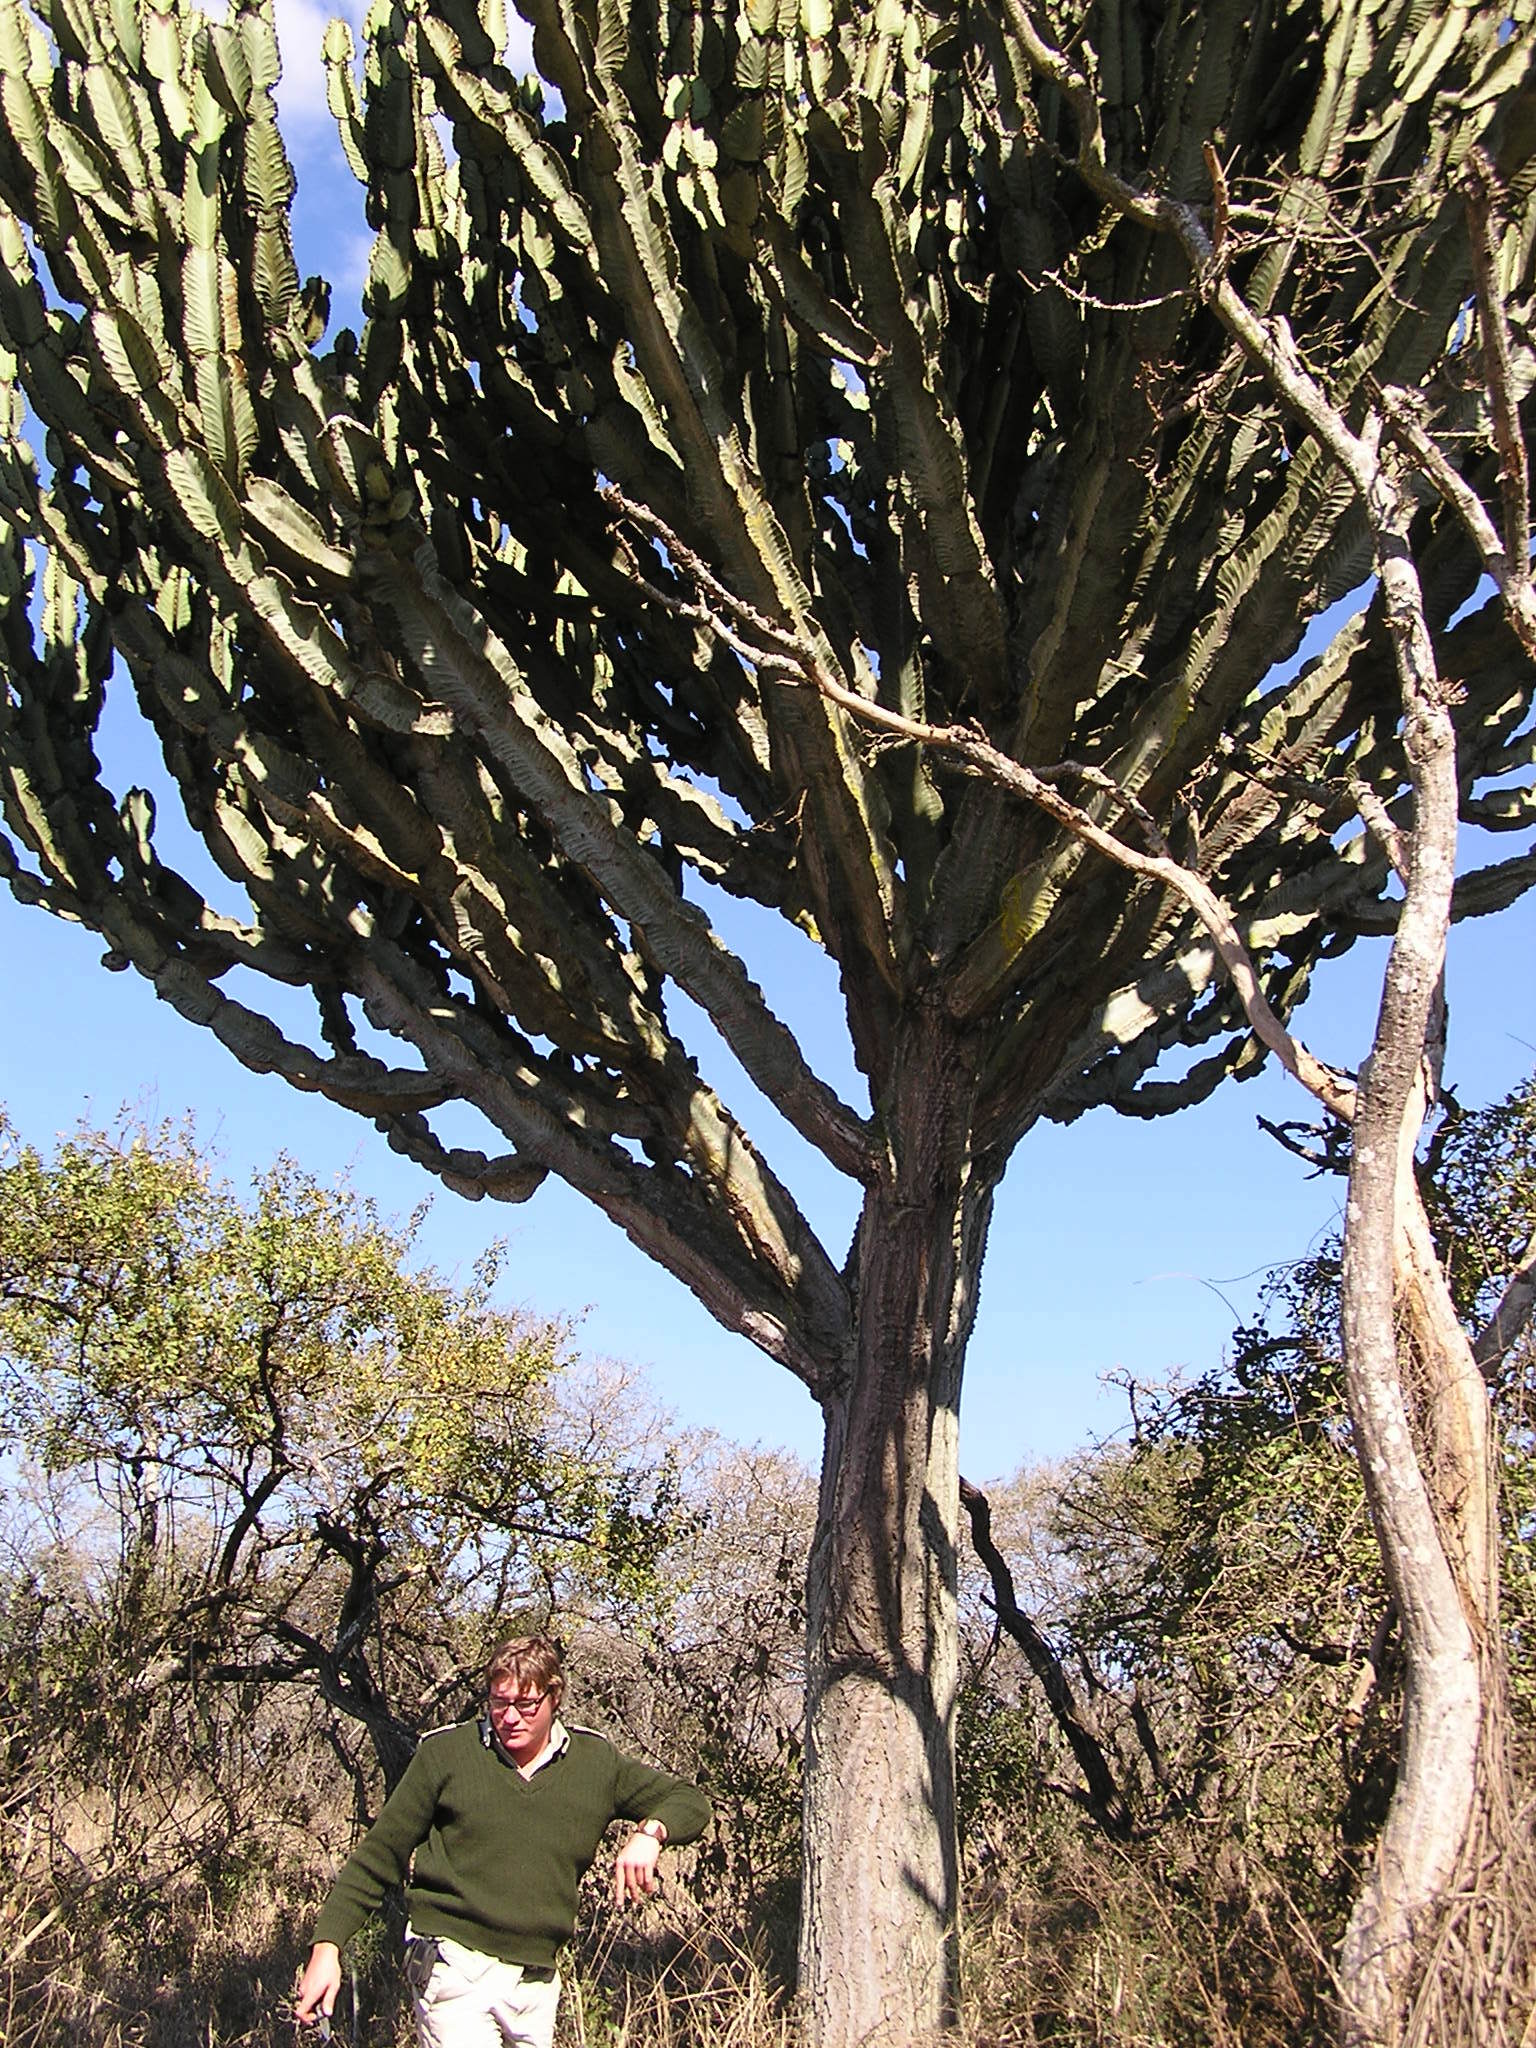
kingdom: Plantae
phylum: Tracheophyta
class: Magnoliopsida
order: Malpighiales
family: Euphorbiaceae
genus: Euphorbia
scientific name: Euphorbia ingens
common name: Cactus spurge
